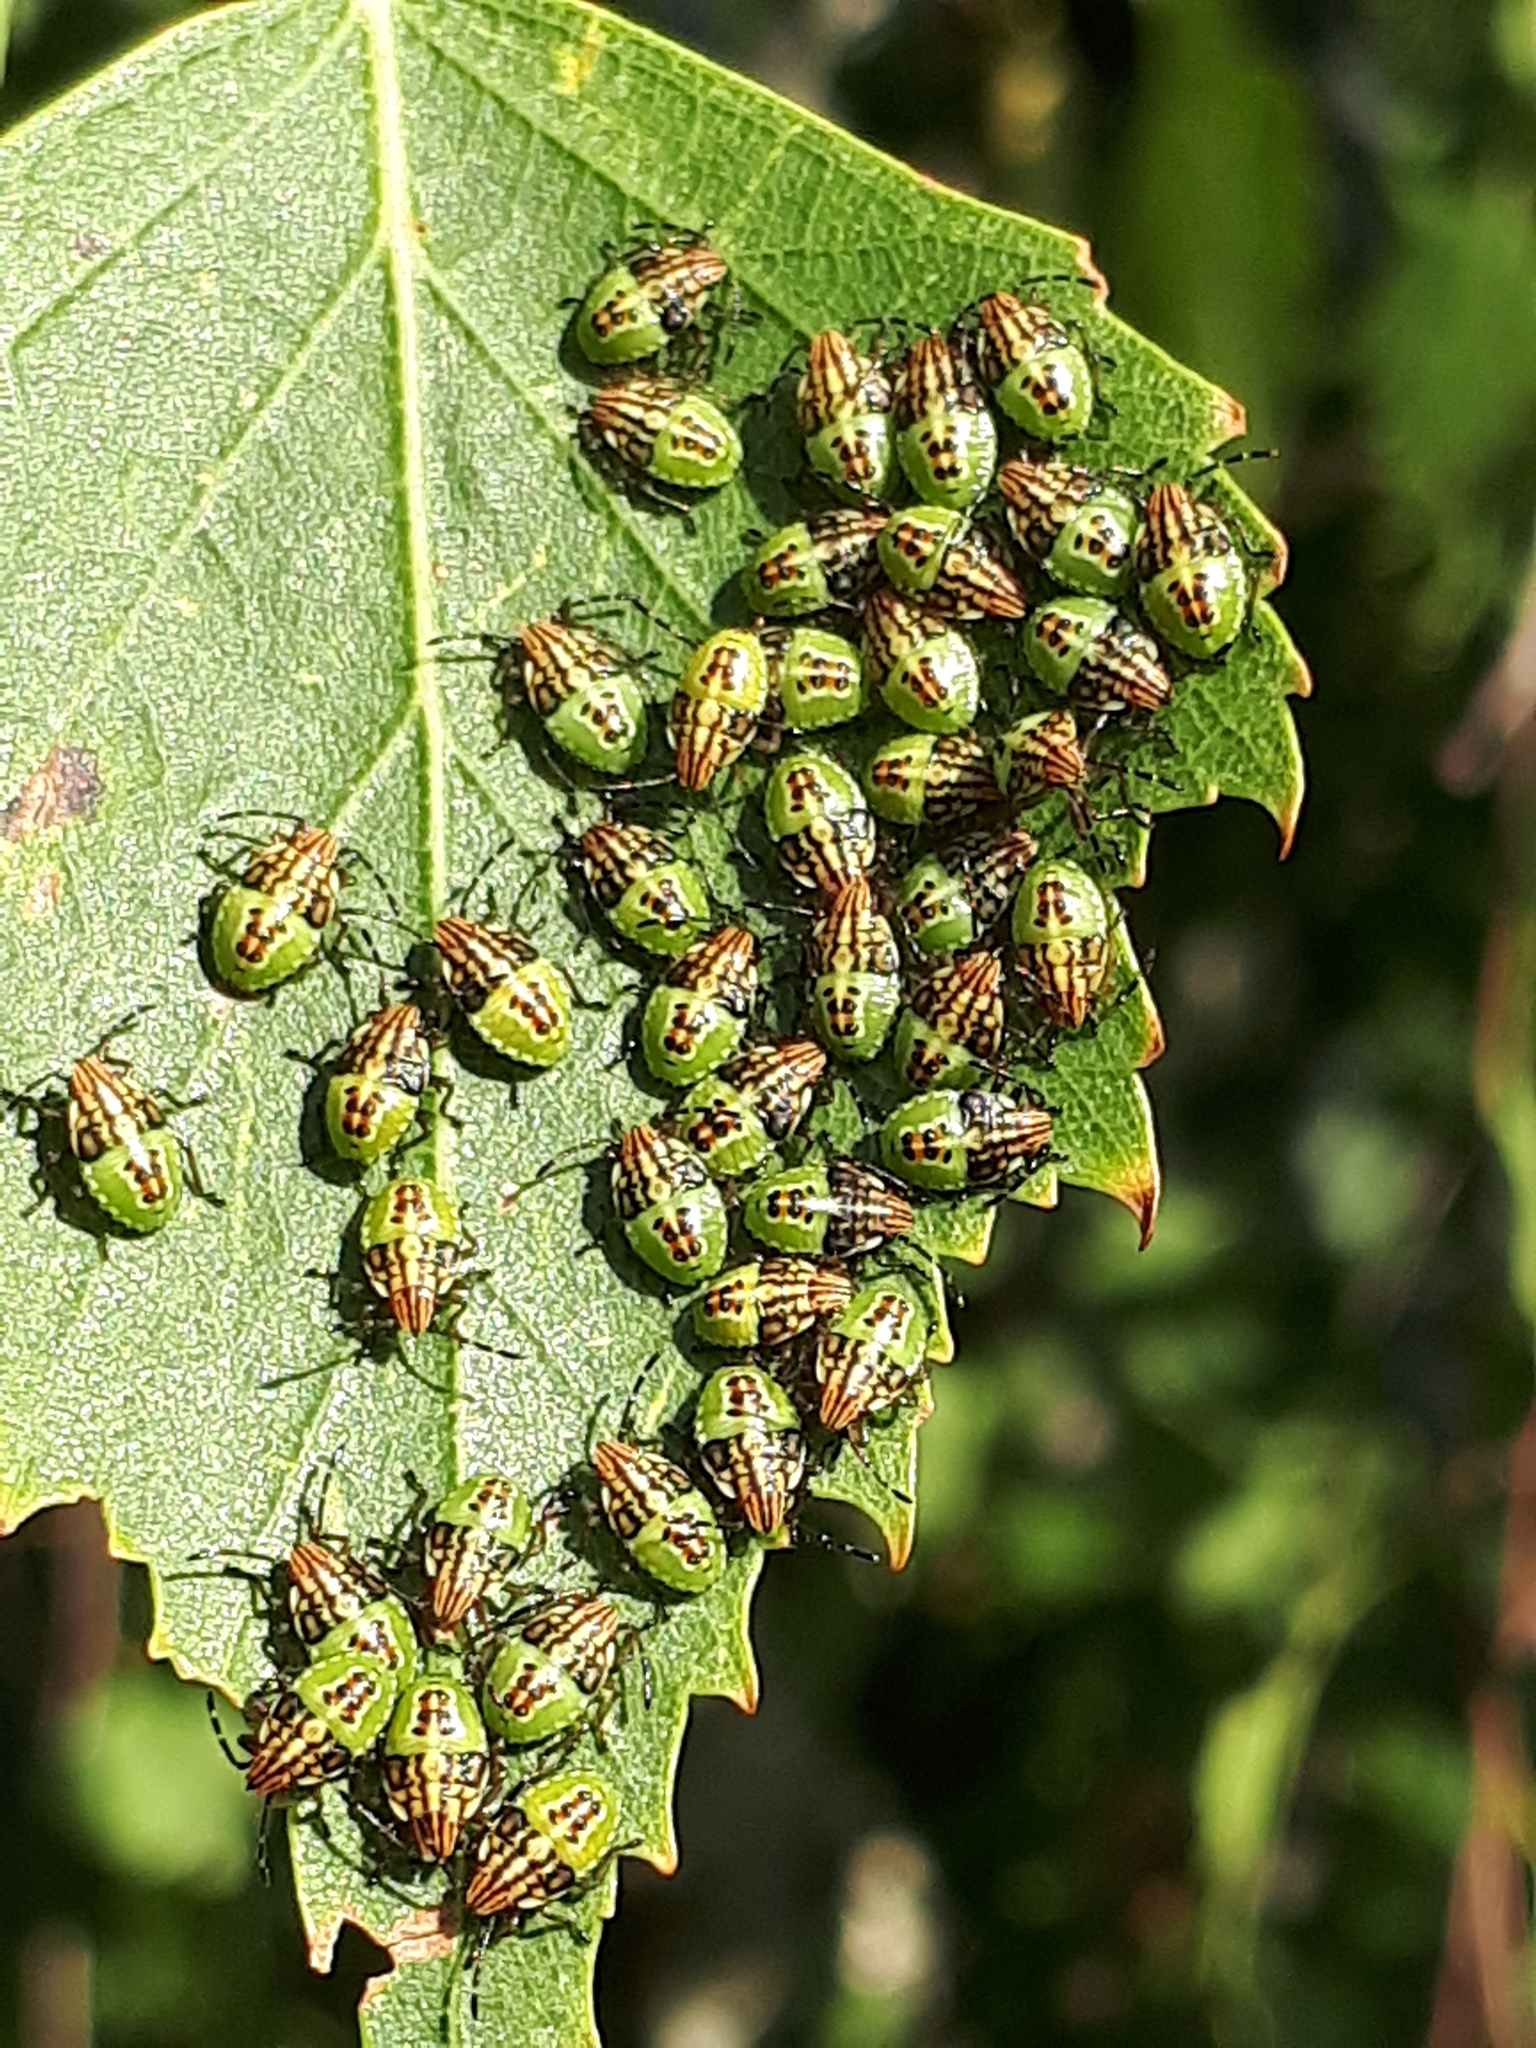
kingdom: Animalia
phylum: Arthropoda
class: Insecta
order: Hemiptera
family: Acanthosomatidae
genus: Elasmucha
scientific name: Elasmucha grisea
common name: Parent bug
